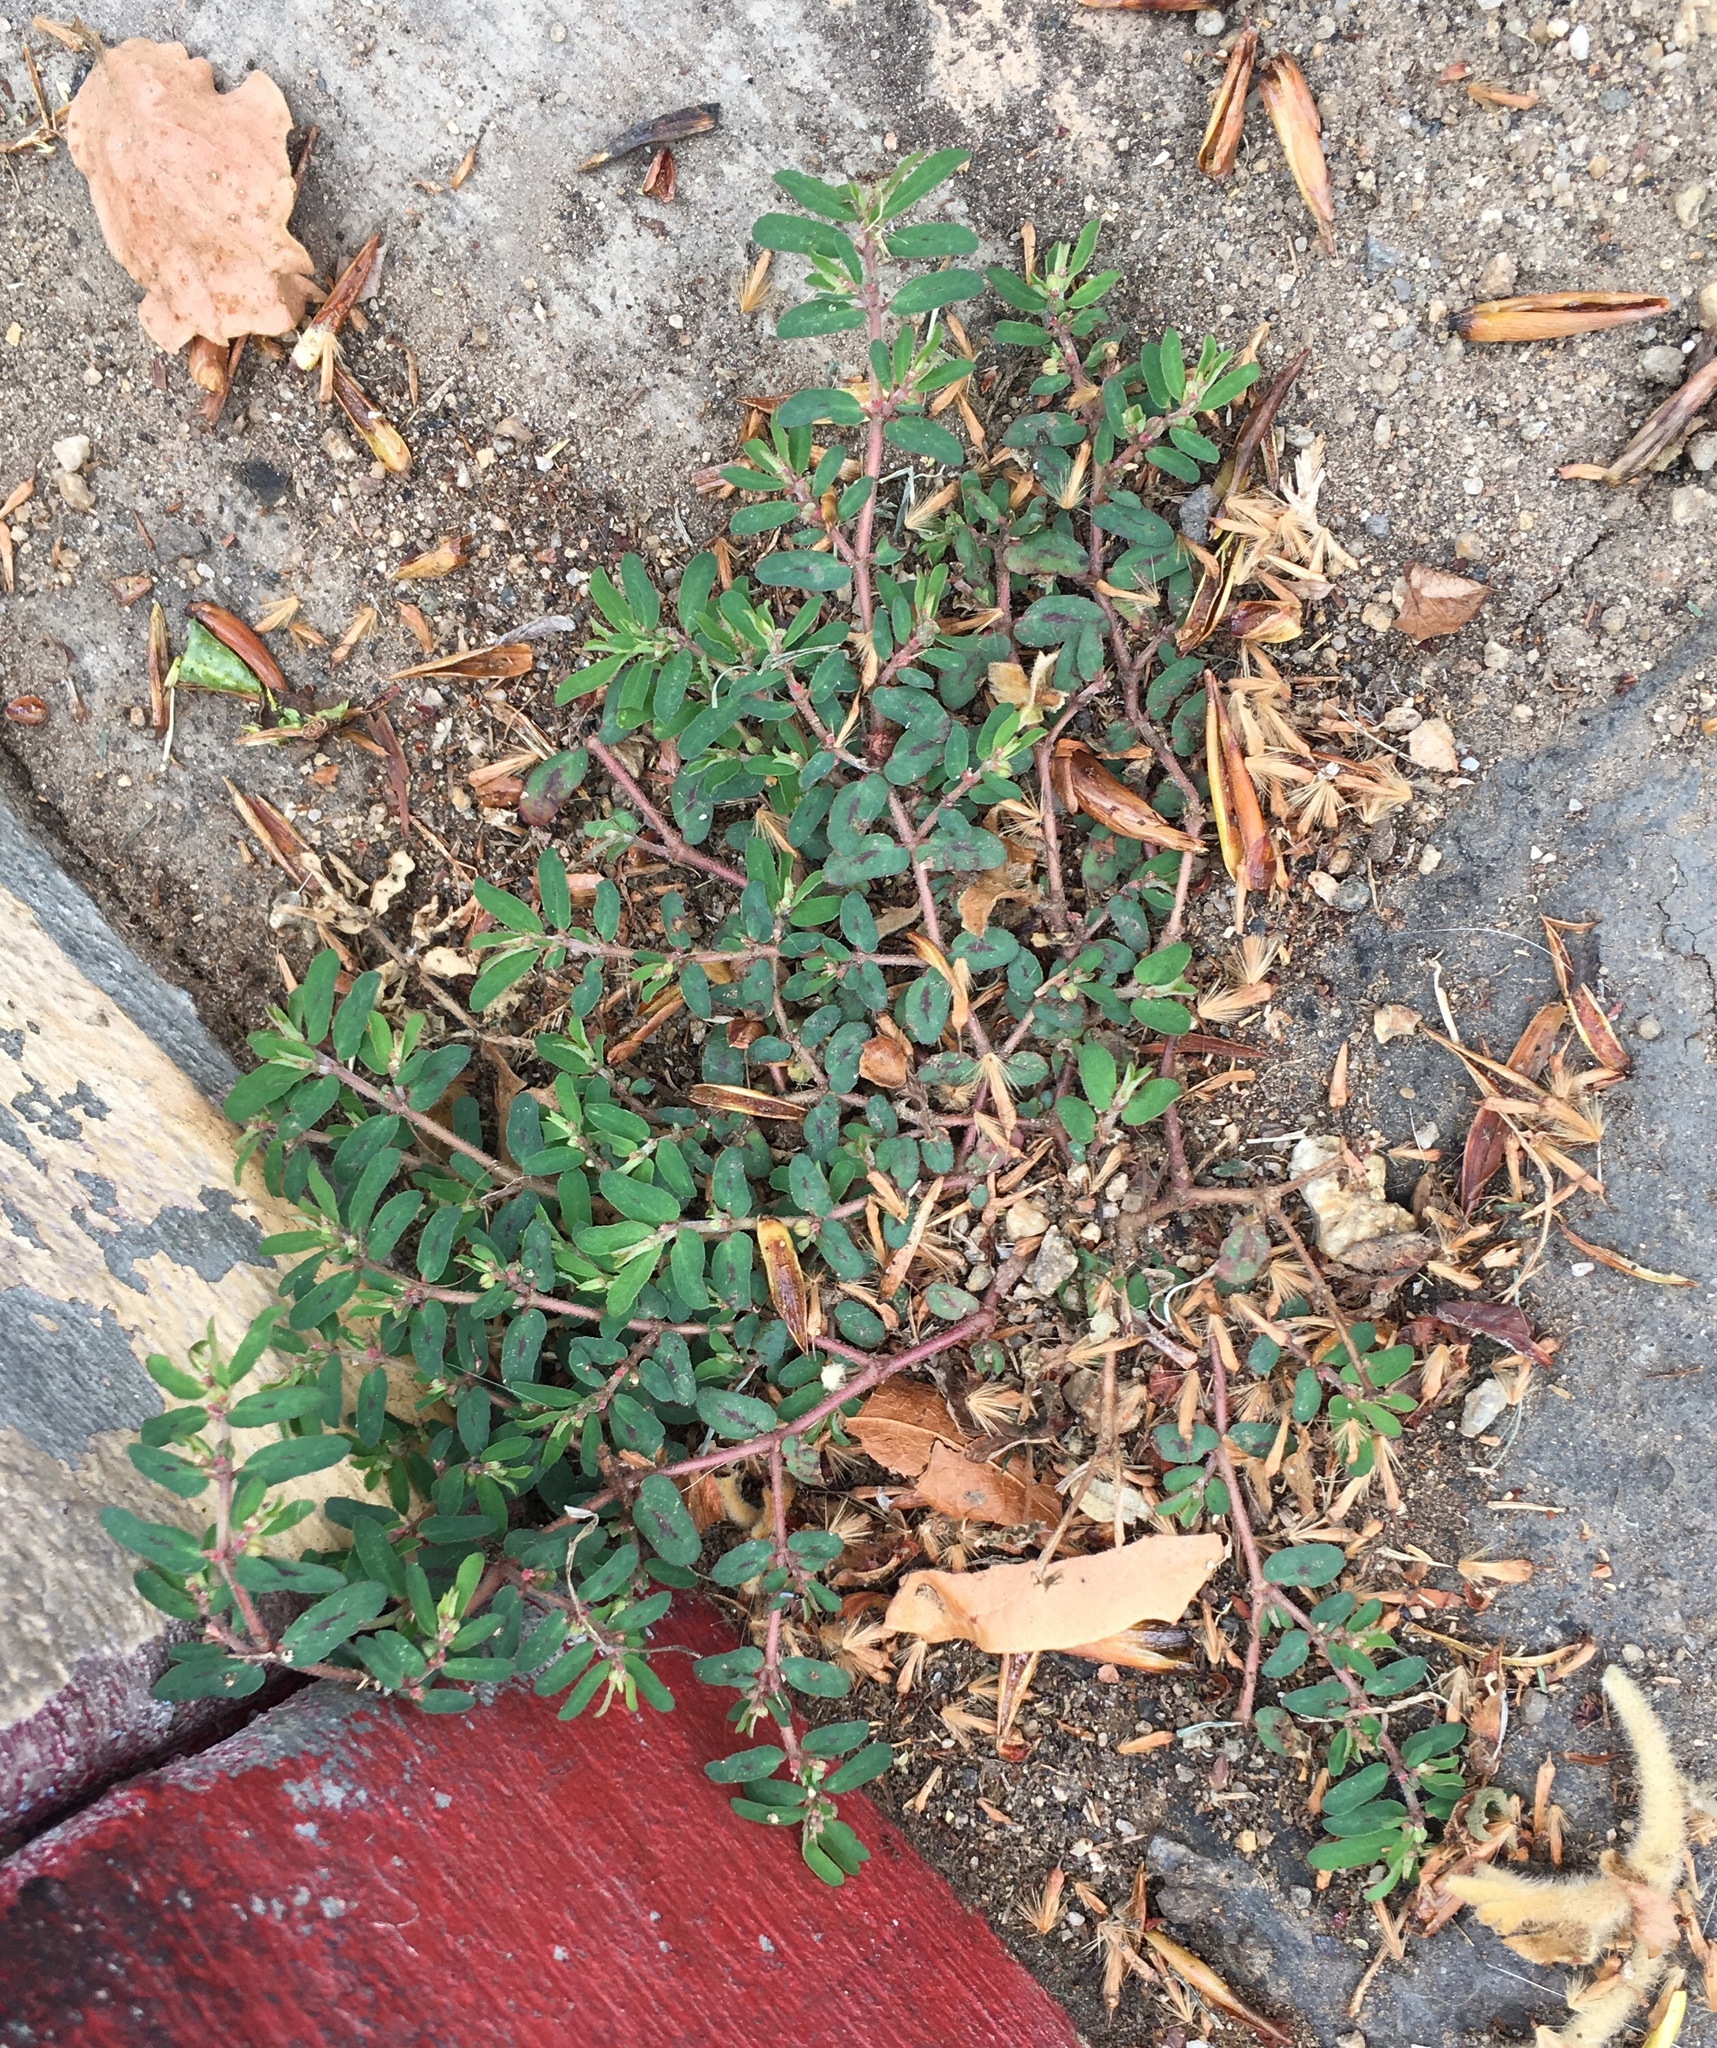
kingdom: Plantae
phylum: Tracheophyta
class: Magnoliopsida
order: Malpighiales
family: Euphorbiaceae
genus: Euphorbia
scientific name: Euphorbia maculata
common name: Spotted spurge
